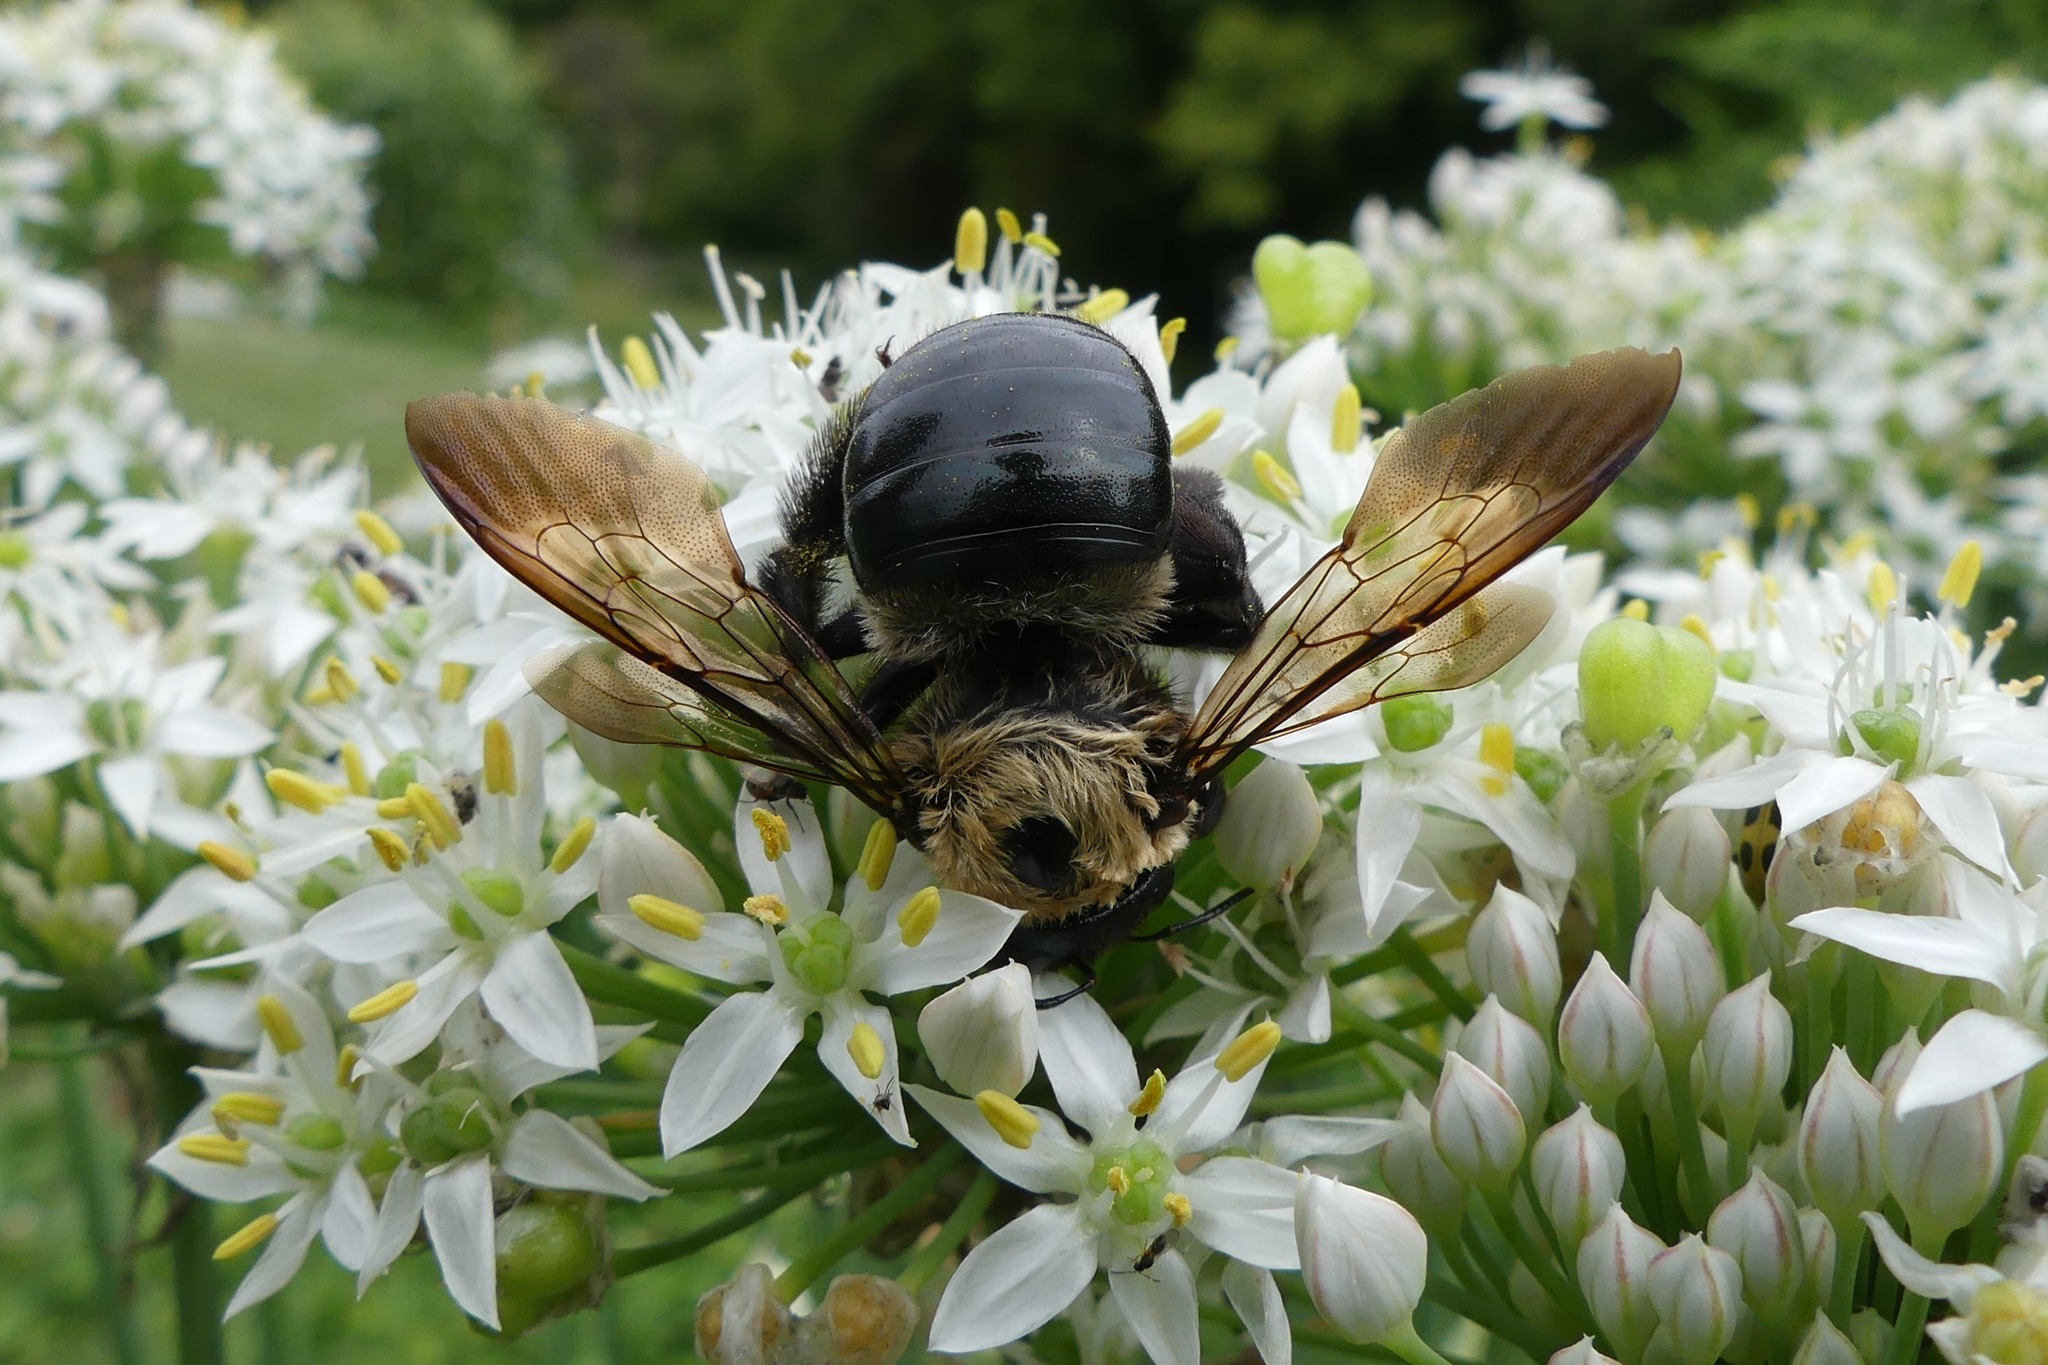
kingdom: Animalia
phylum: Arthropoda
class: Insecta
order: Hymenoptera
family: Apidae
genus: Xylocopa
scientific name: Xylocopa virginica
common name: Carpenter bee
